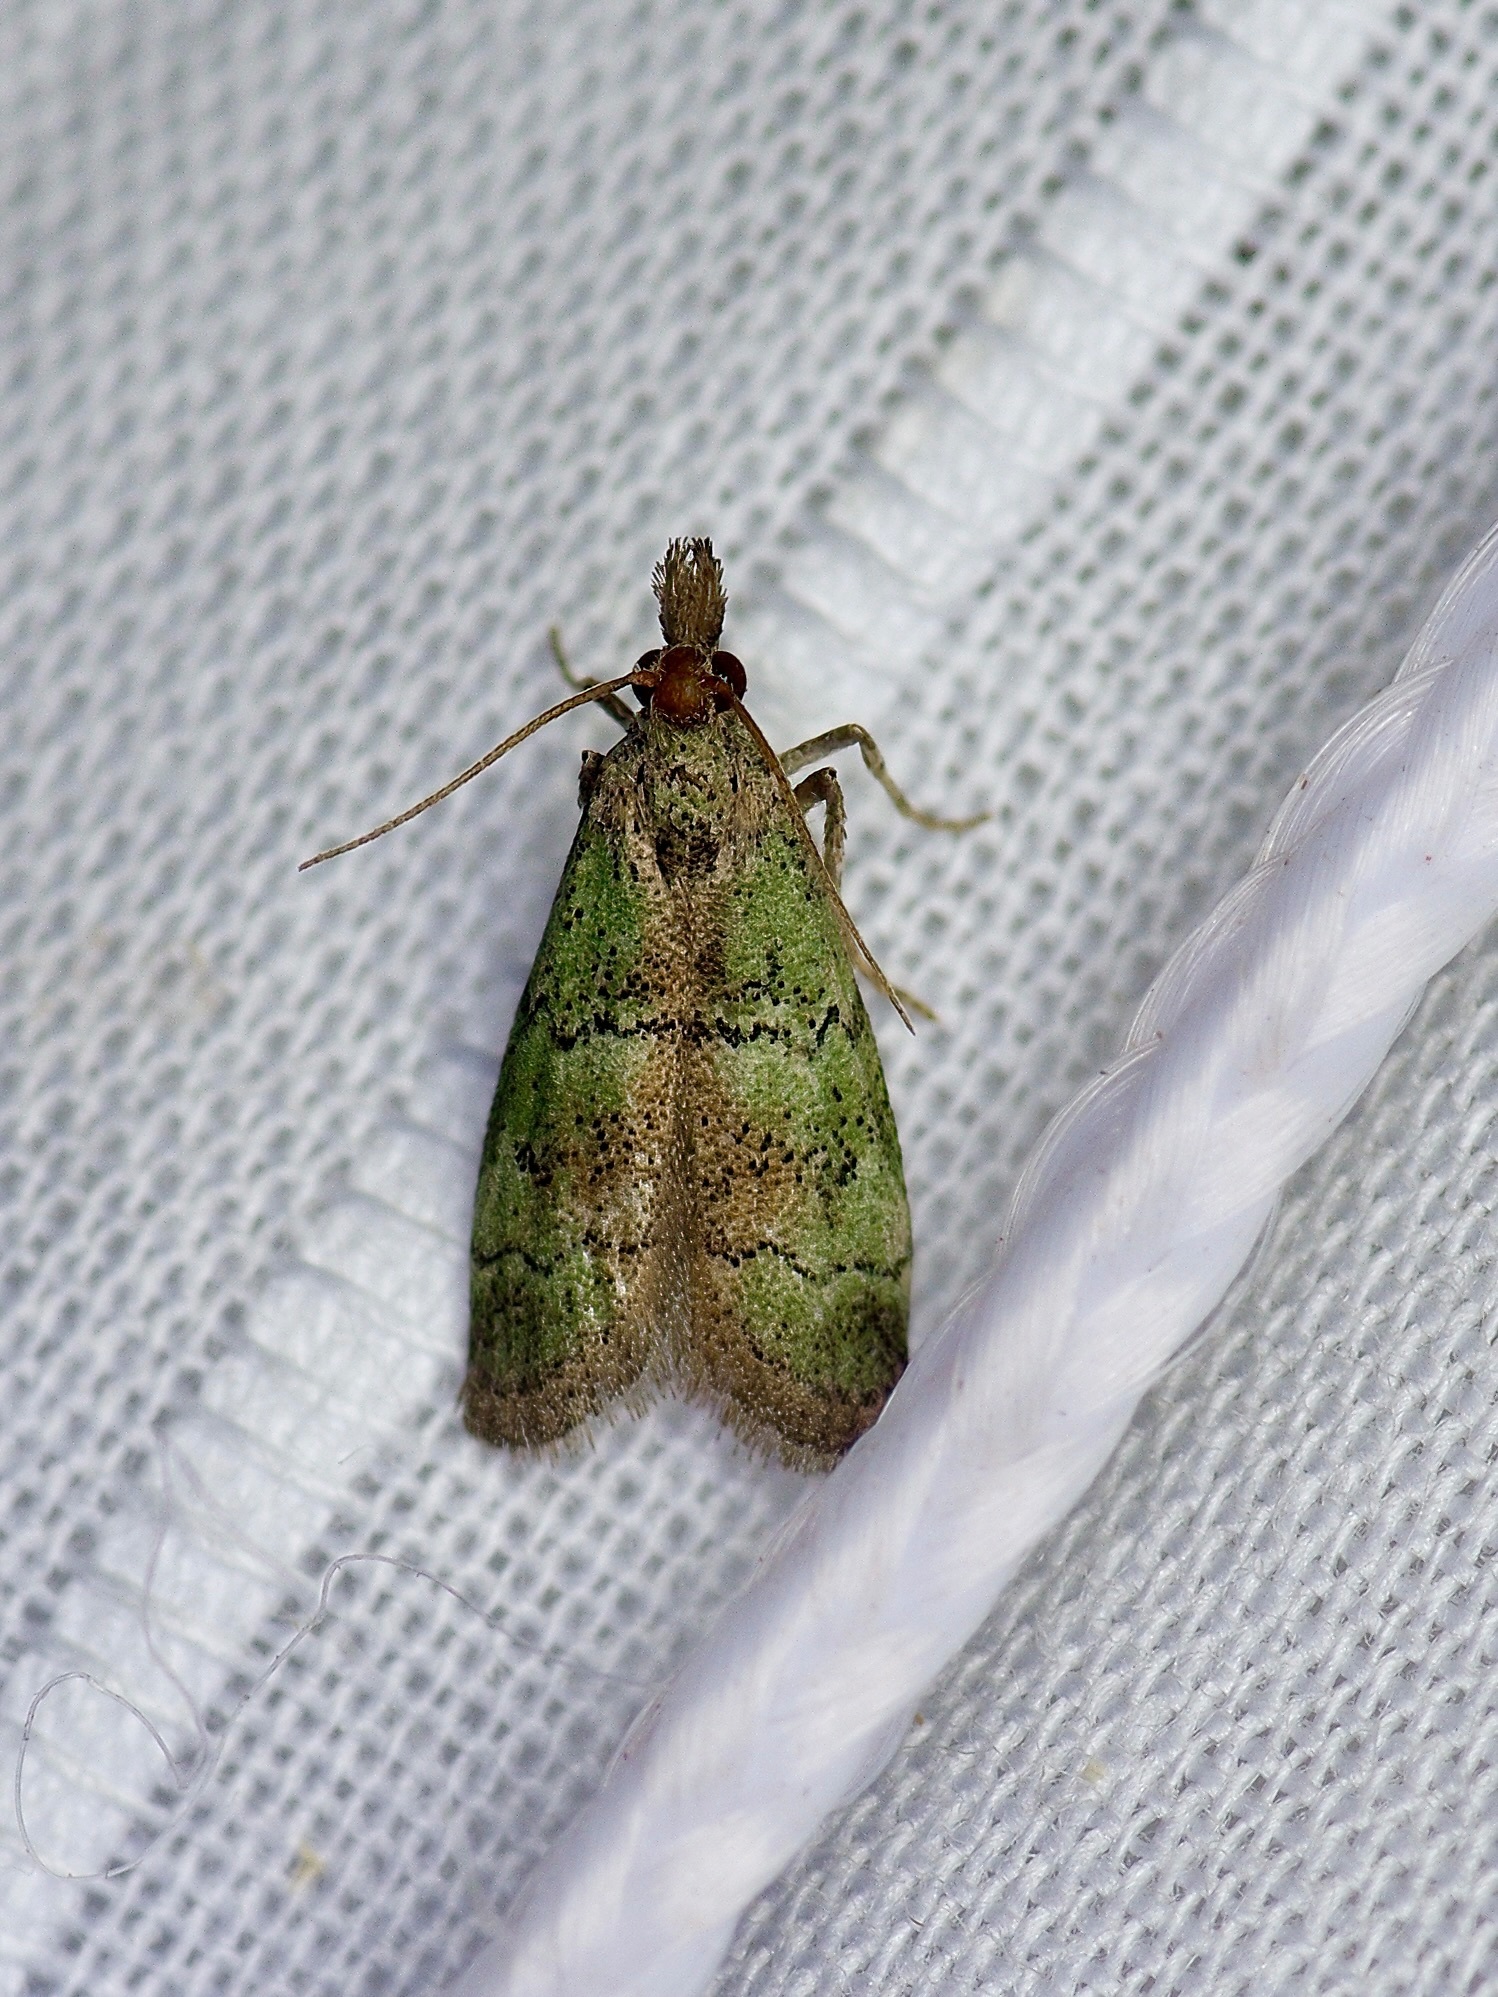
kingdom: Animalia
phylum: Arthropoda
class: Insecta
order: Lepidoptera
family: Pyralidae
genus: Cacotherapia
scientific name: Cacotherapia flexilinealis
